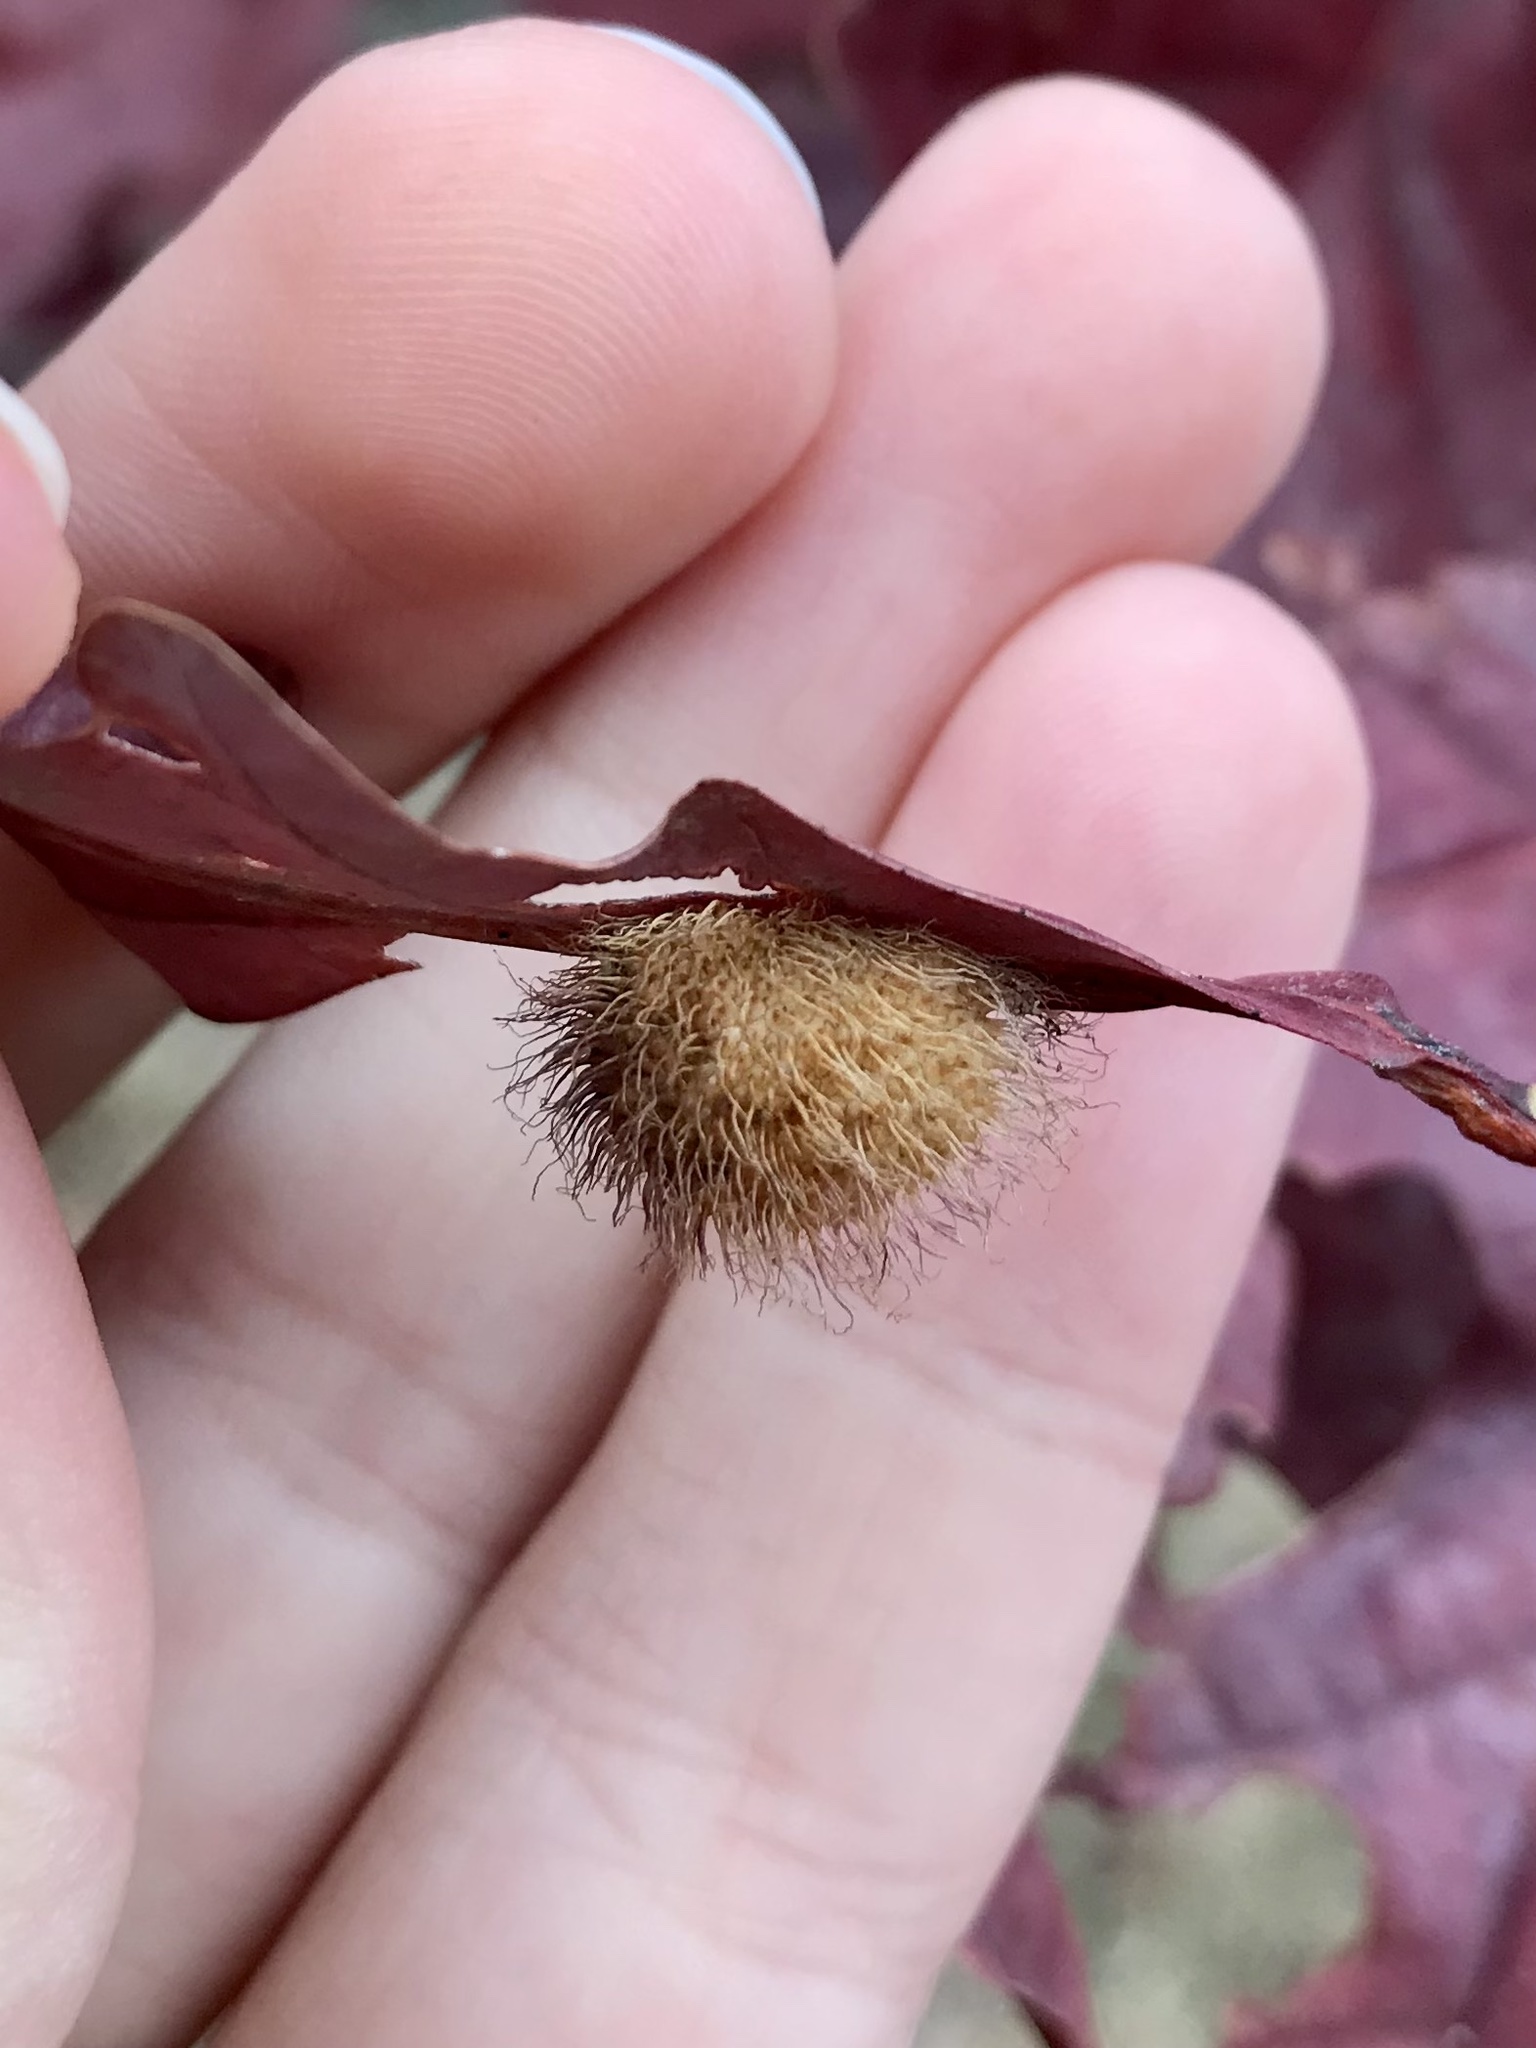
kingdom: Animalia
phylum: Arthropoda
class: Insecta
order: Hymenoptera
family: Cynipidae
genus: Acraspis
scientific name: Acraspis erinacei
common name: Hedgehog gall wasp
